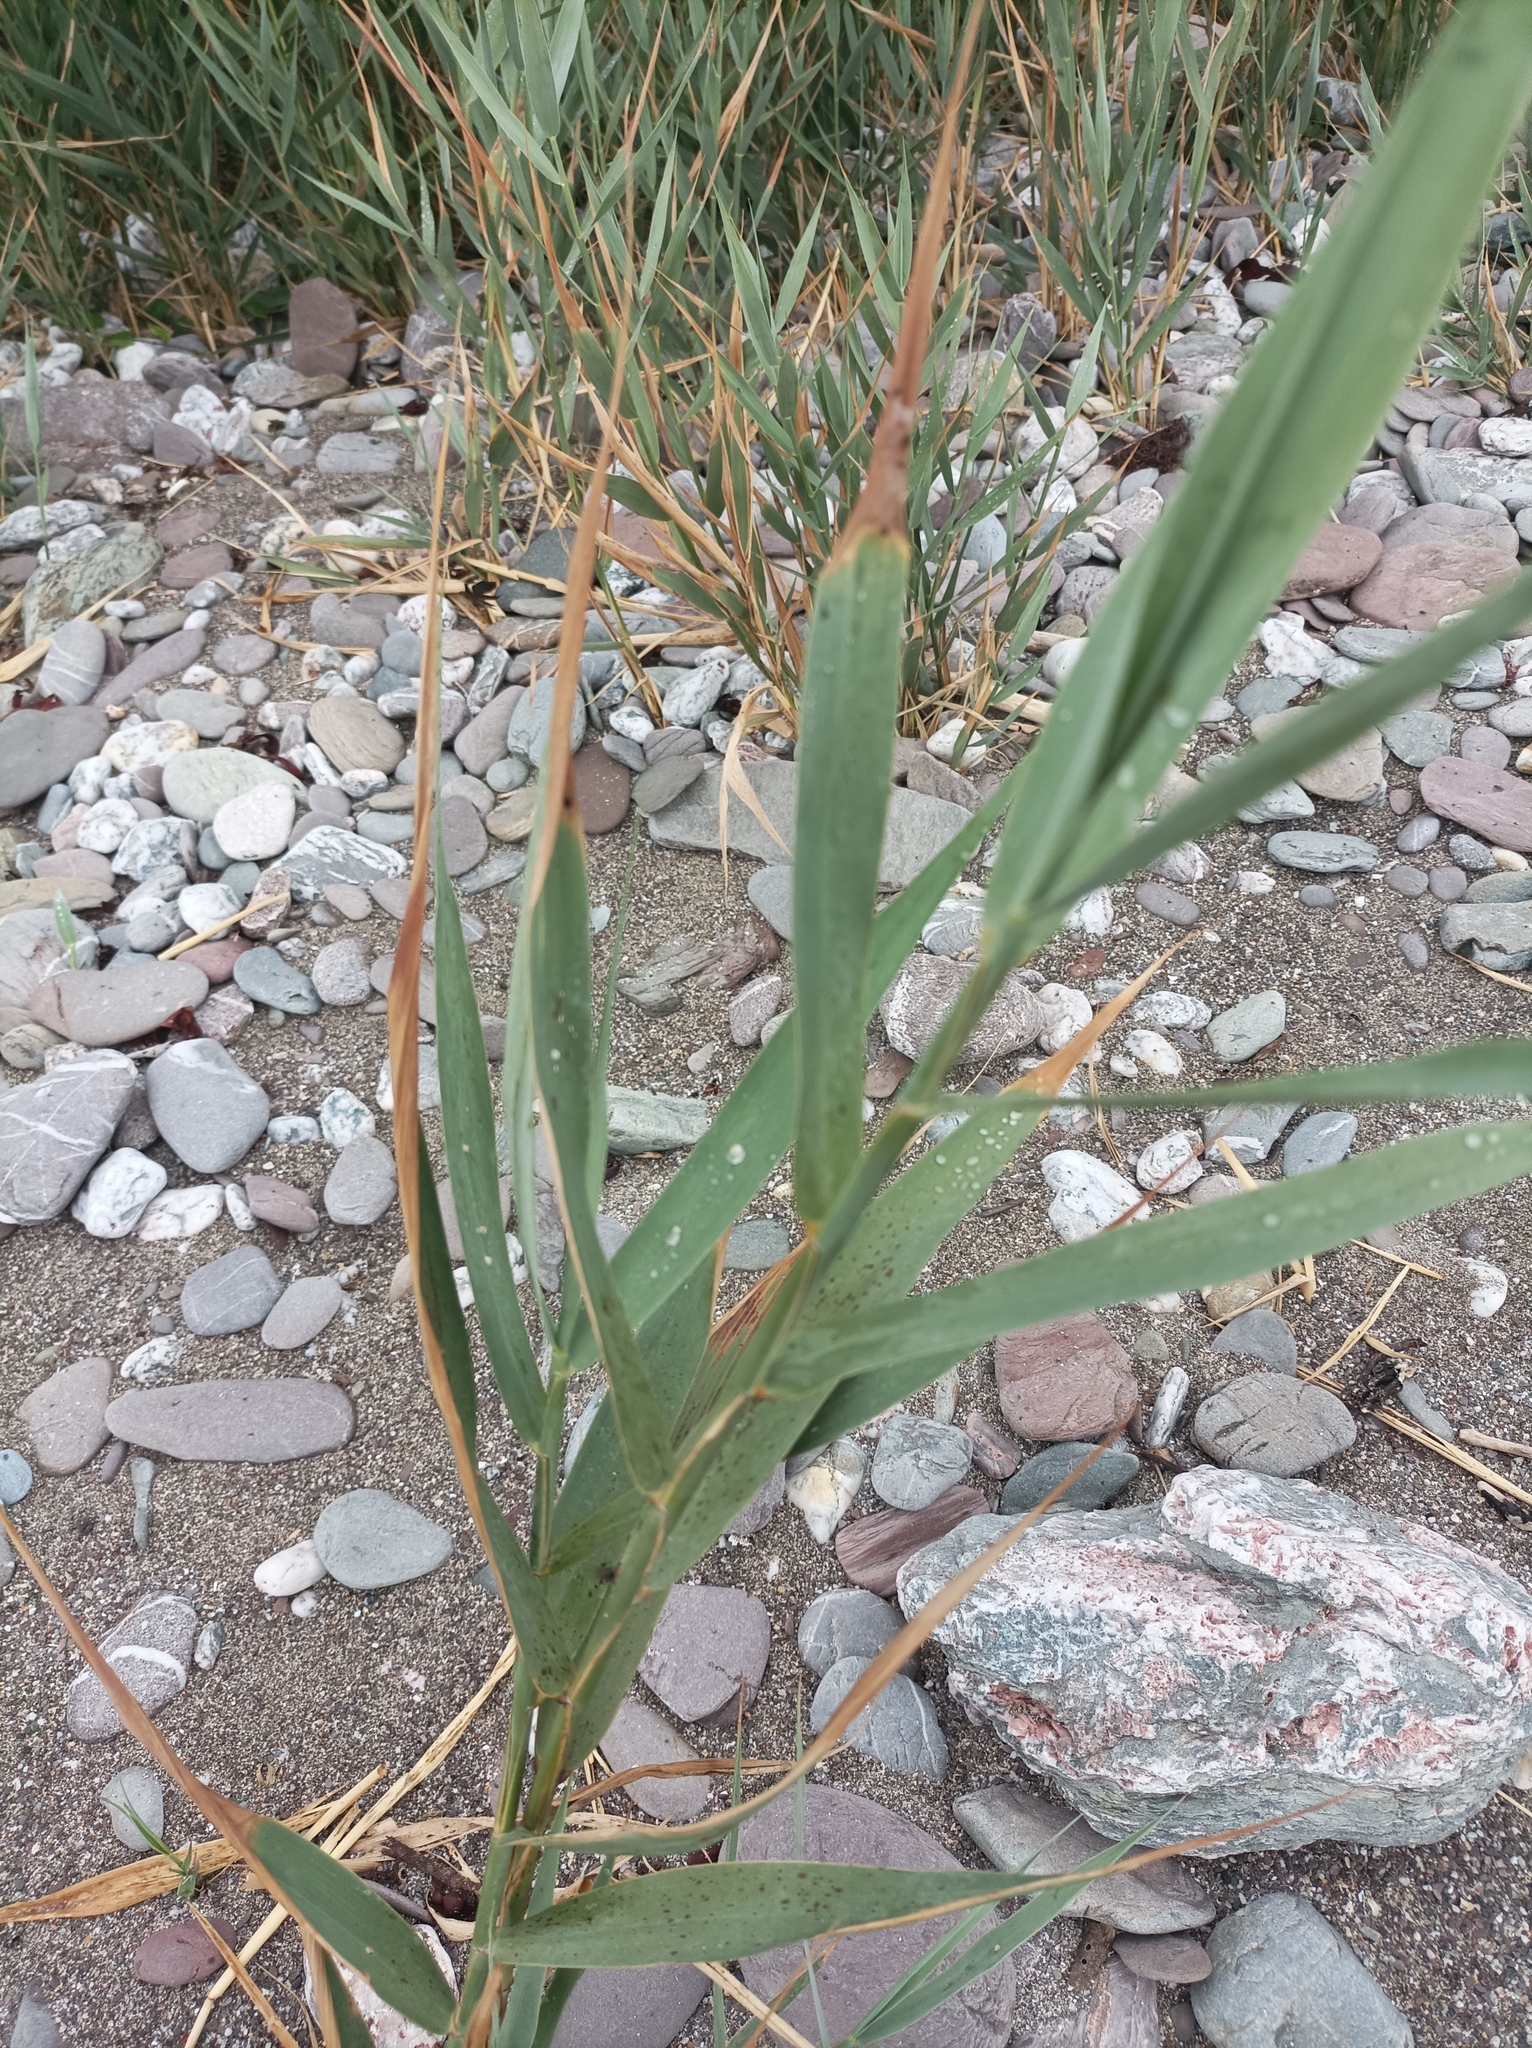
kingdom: Plantae
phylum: Tracheophyta
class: Liliopsida
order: Poales
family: Poaceae
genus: Phragmites
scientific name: Phragmites australis
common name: Common reed
